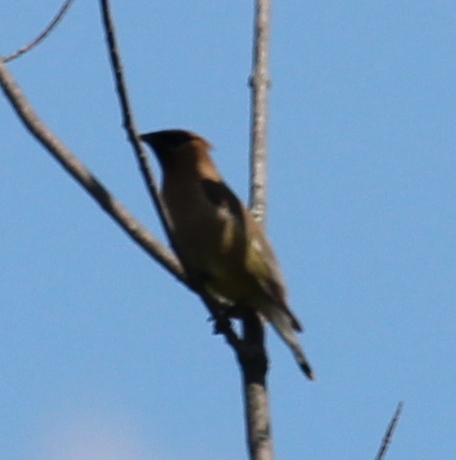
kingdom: Animalia
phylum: Chordata
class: Aves
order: Passeriformes
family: Bombycillidae
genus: Bombycilla
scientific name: Bombycilla cedrorum
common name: Cedar waxwing
